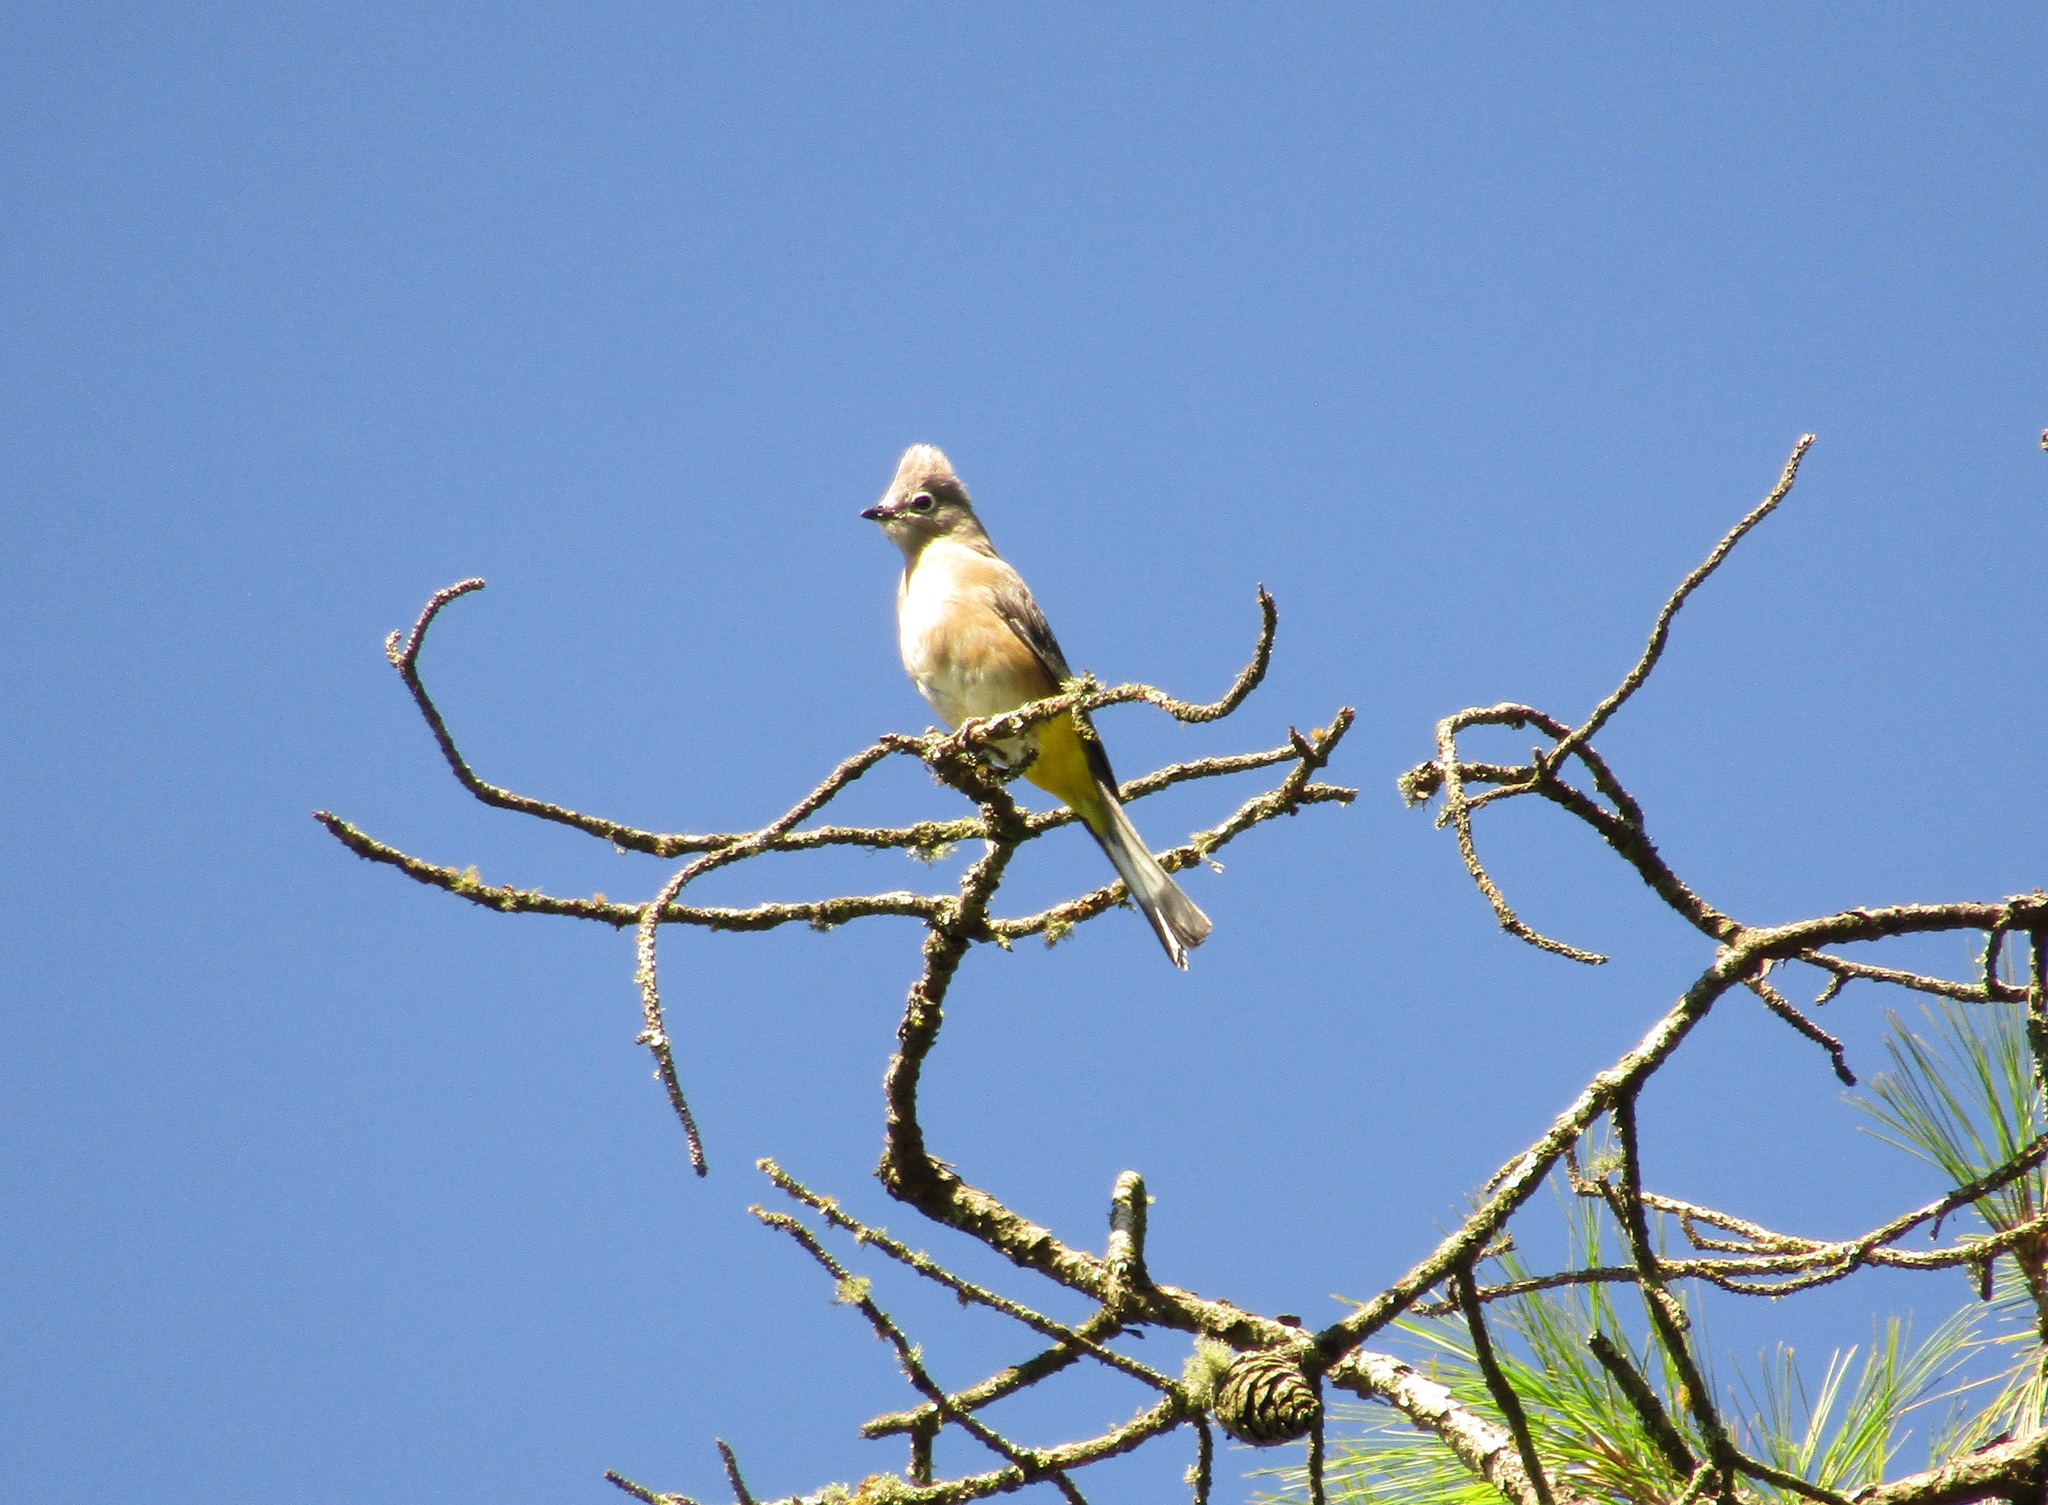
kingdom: Animalia
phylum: Chordata
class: Aves
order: Passeriformes
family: Ptilogonatidae
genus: Ptilogonys
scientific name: Ptilogonys cinereus
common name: Gray silky-flycatcher
